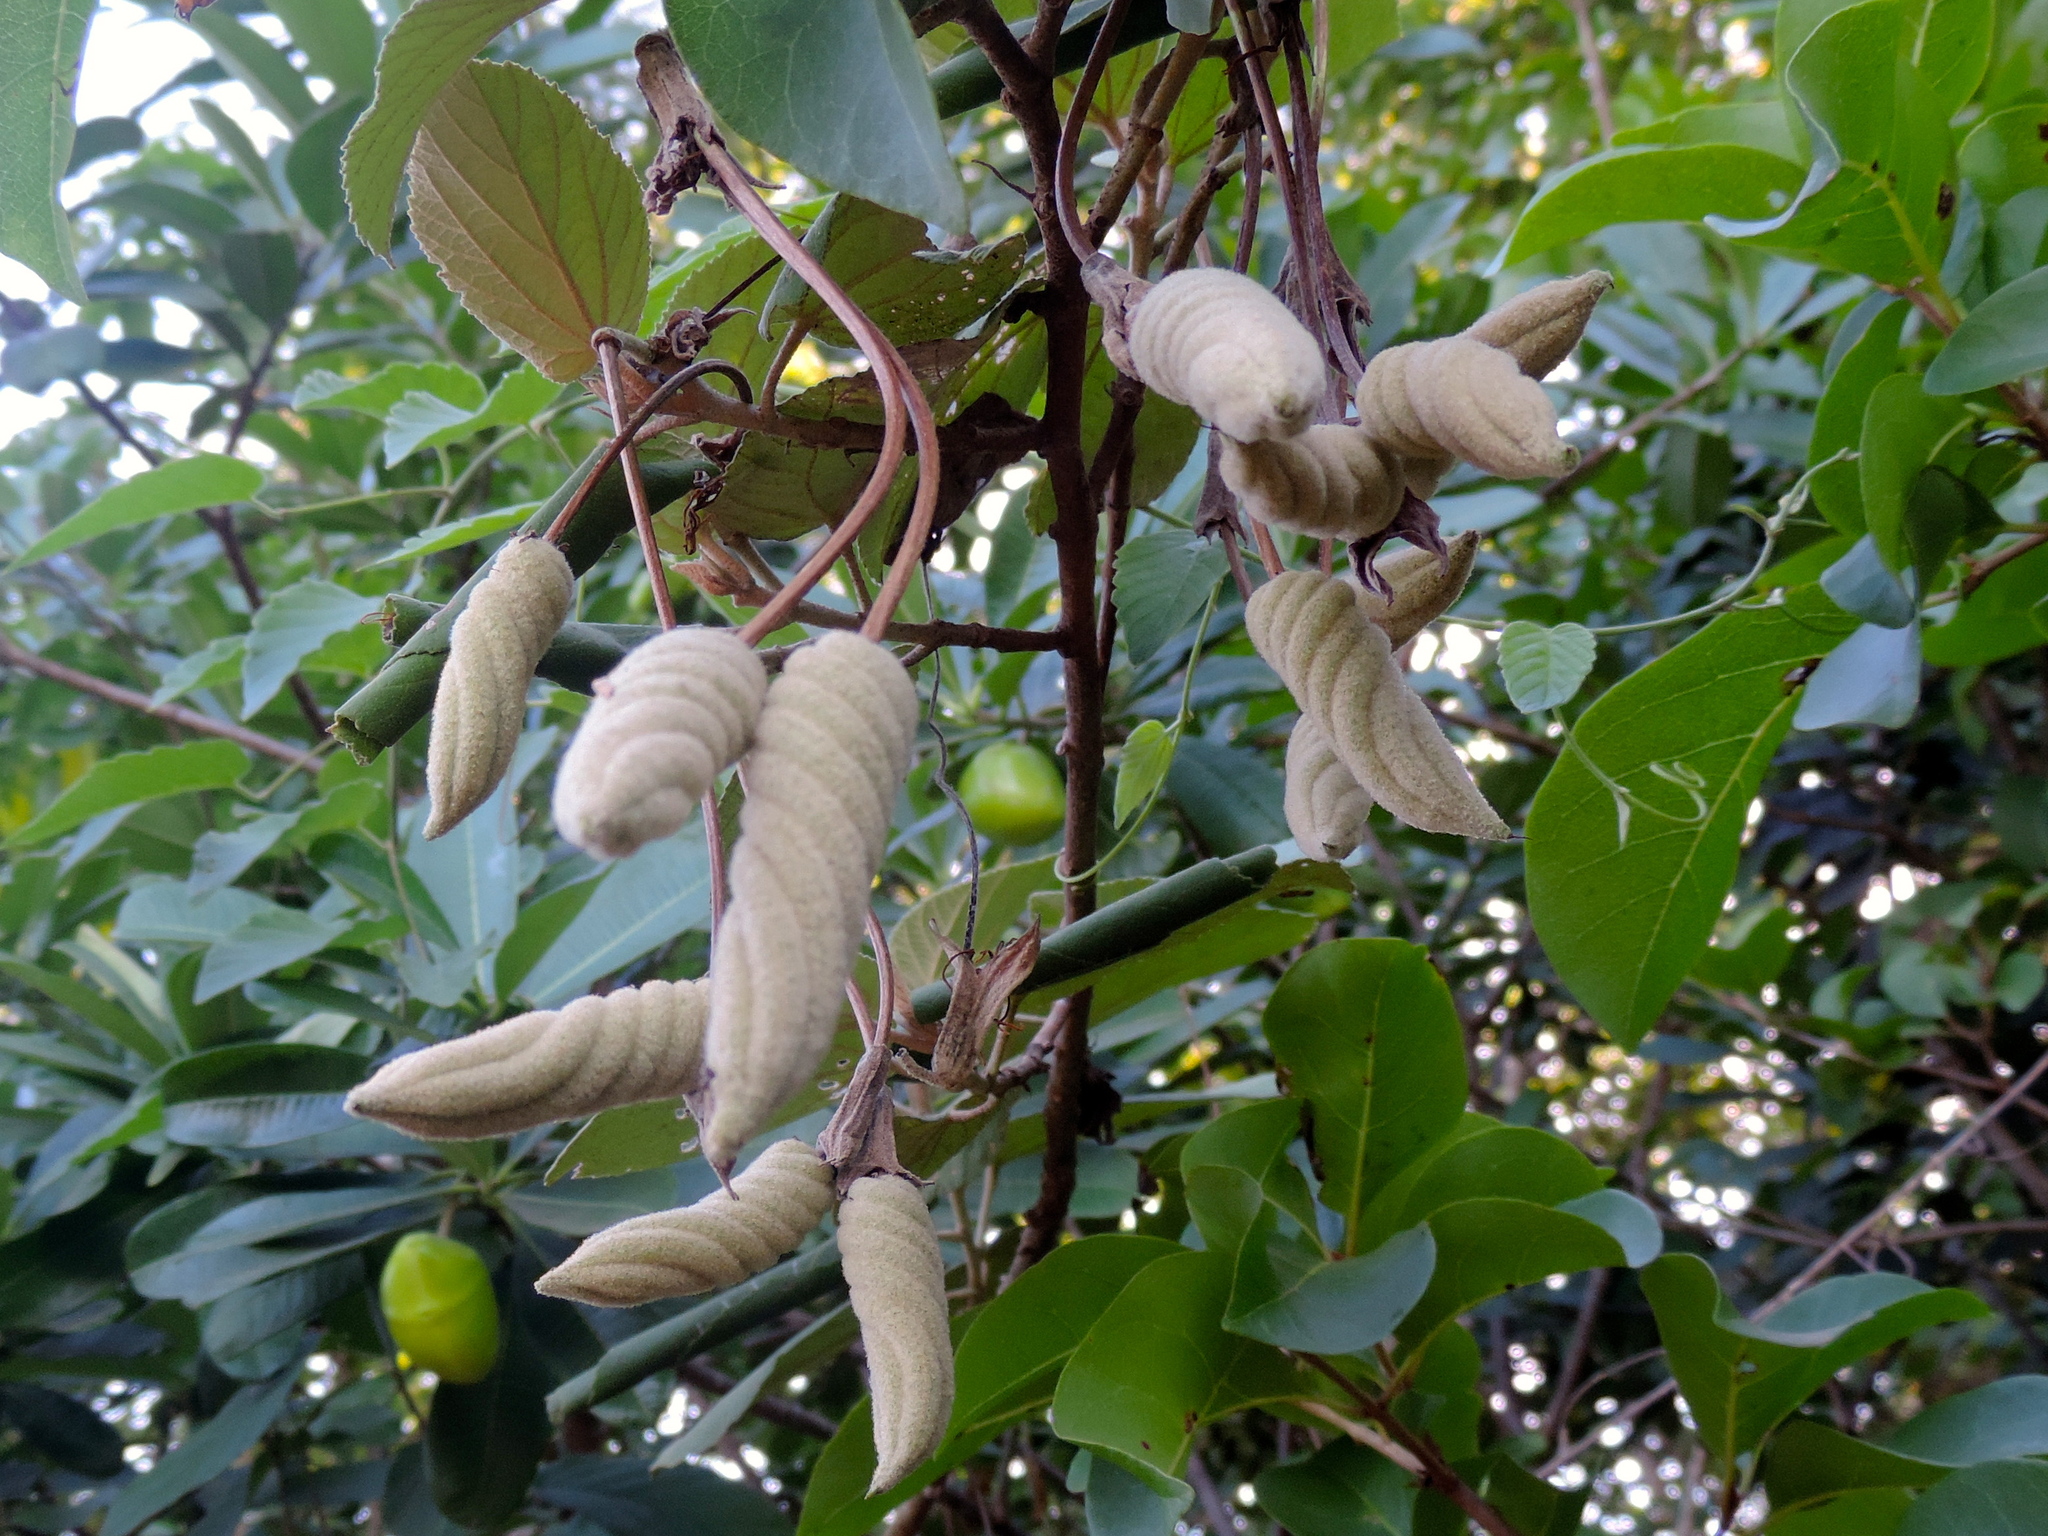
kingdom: Plantae
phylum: Tracheophyta
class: Magnoliopsida
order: Malvales
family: Malvaceae
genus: Helicteres
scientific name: Helicteres baruensis
